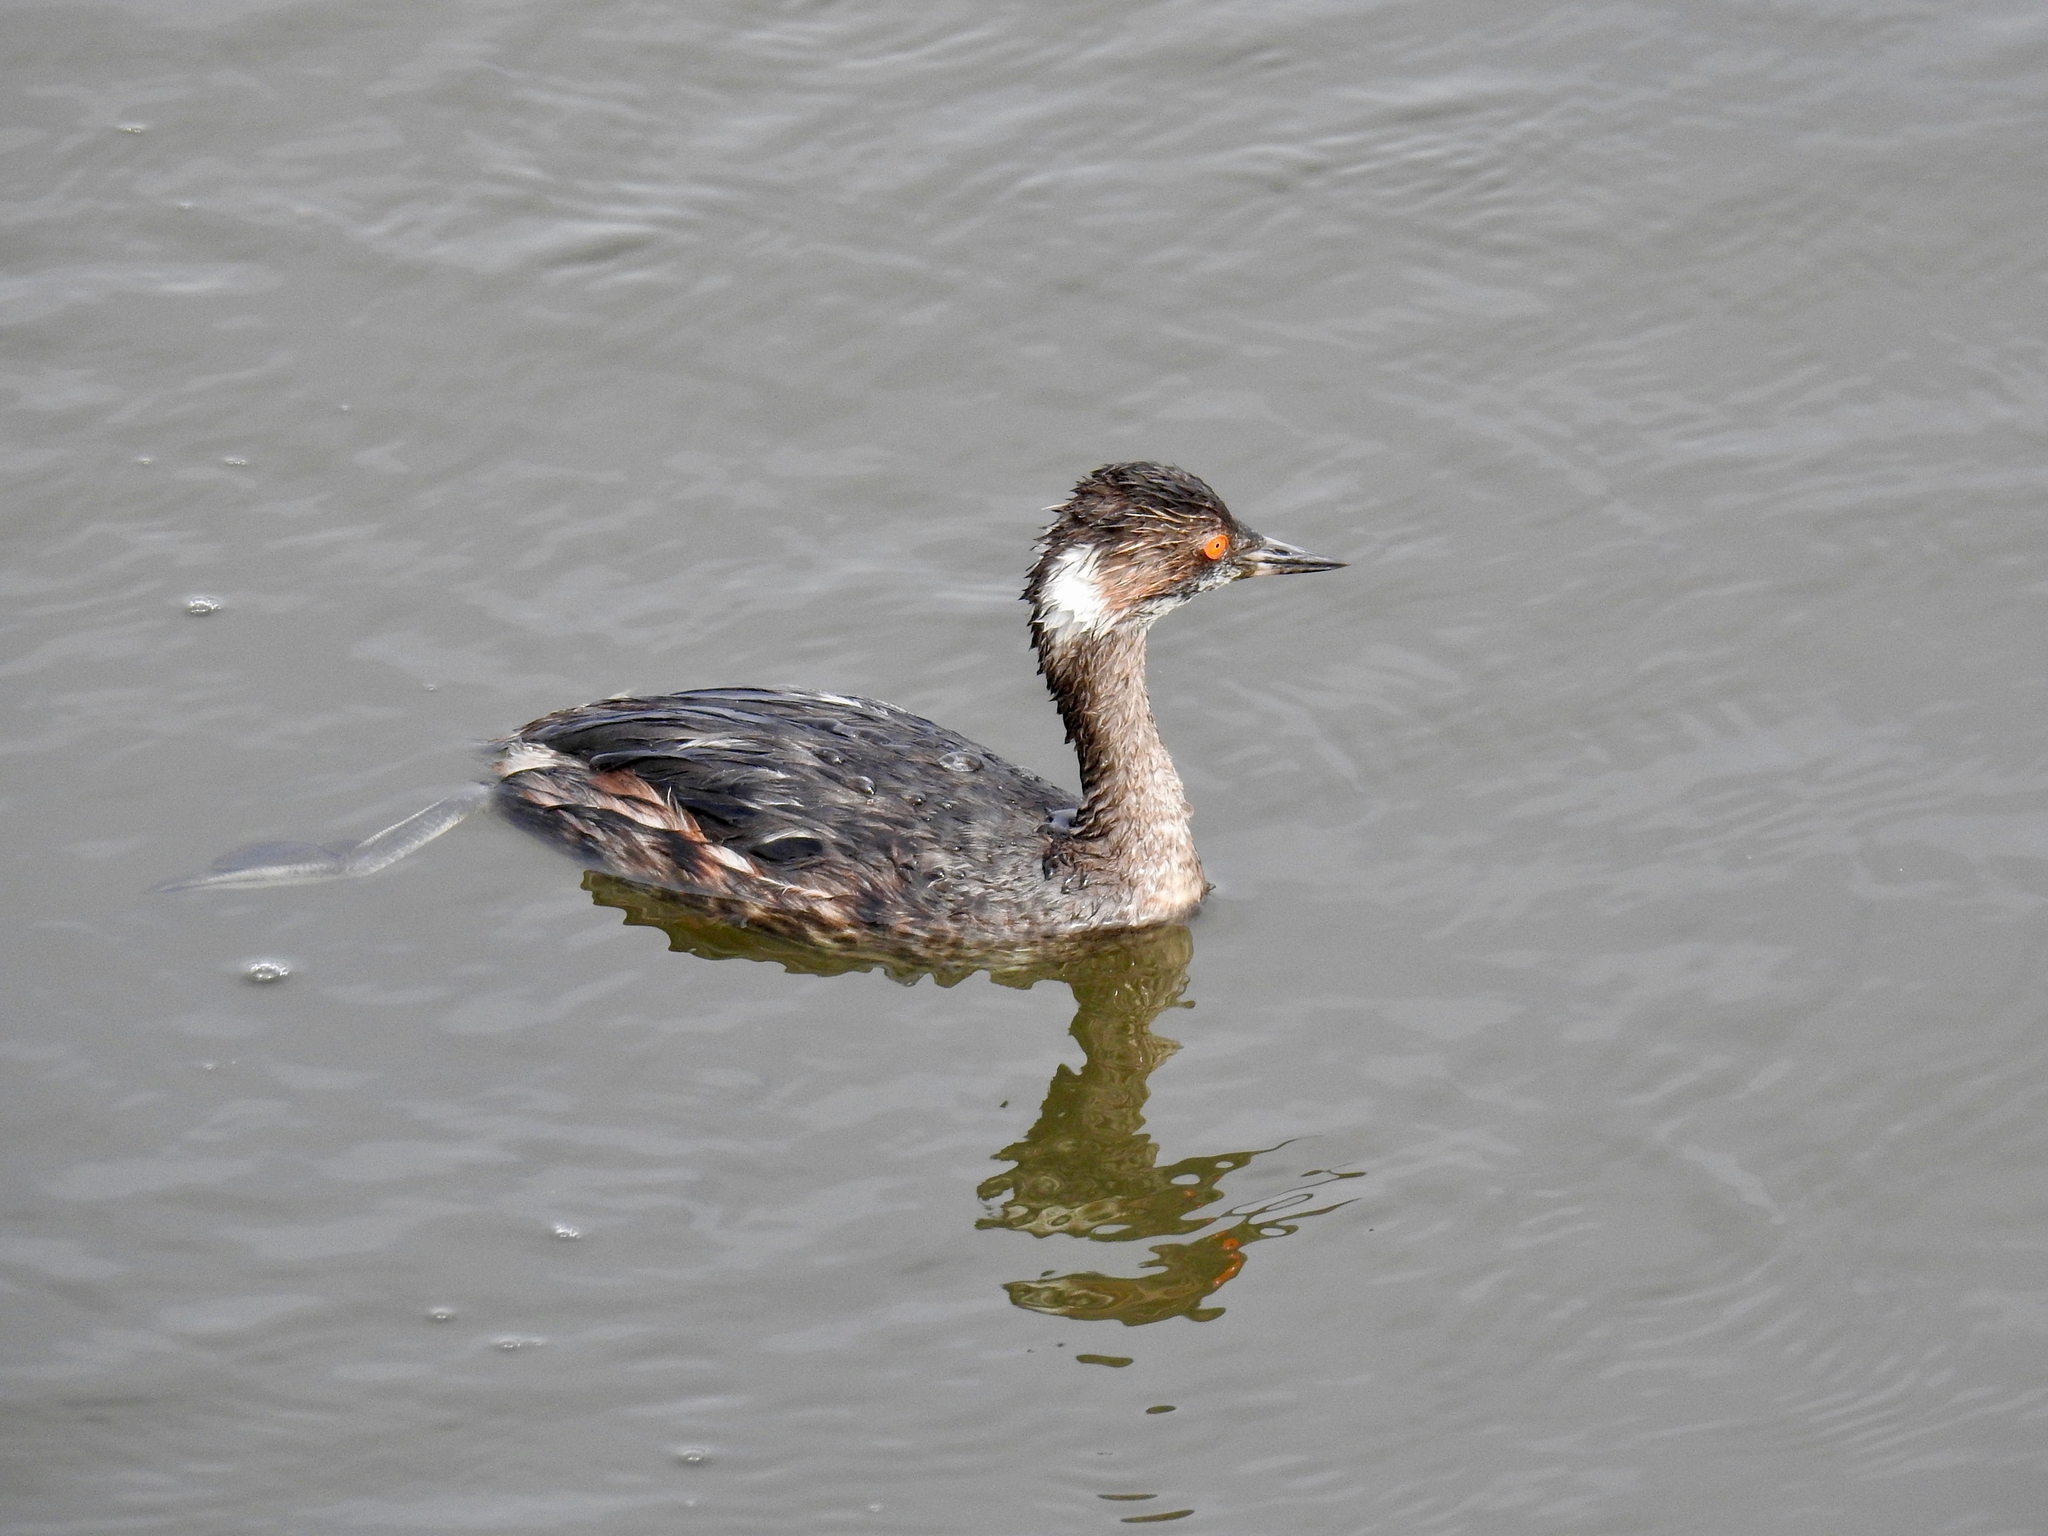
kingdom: Animalia
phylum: Chordata
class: Aves
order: Podicipediformes
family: Podicipedidae
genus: Podiceps
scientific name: Podiceps nigricollis
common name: Black-necked grebe
